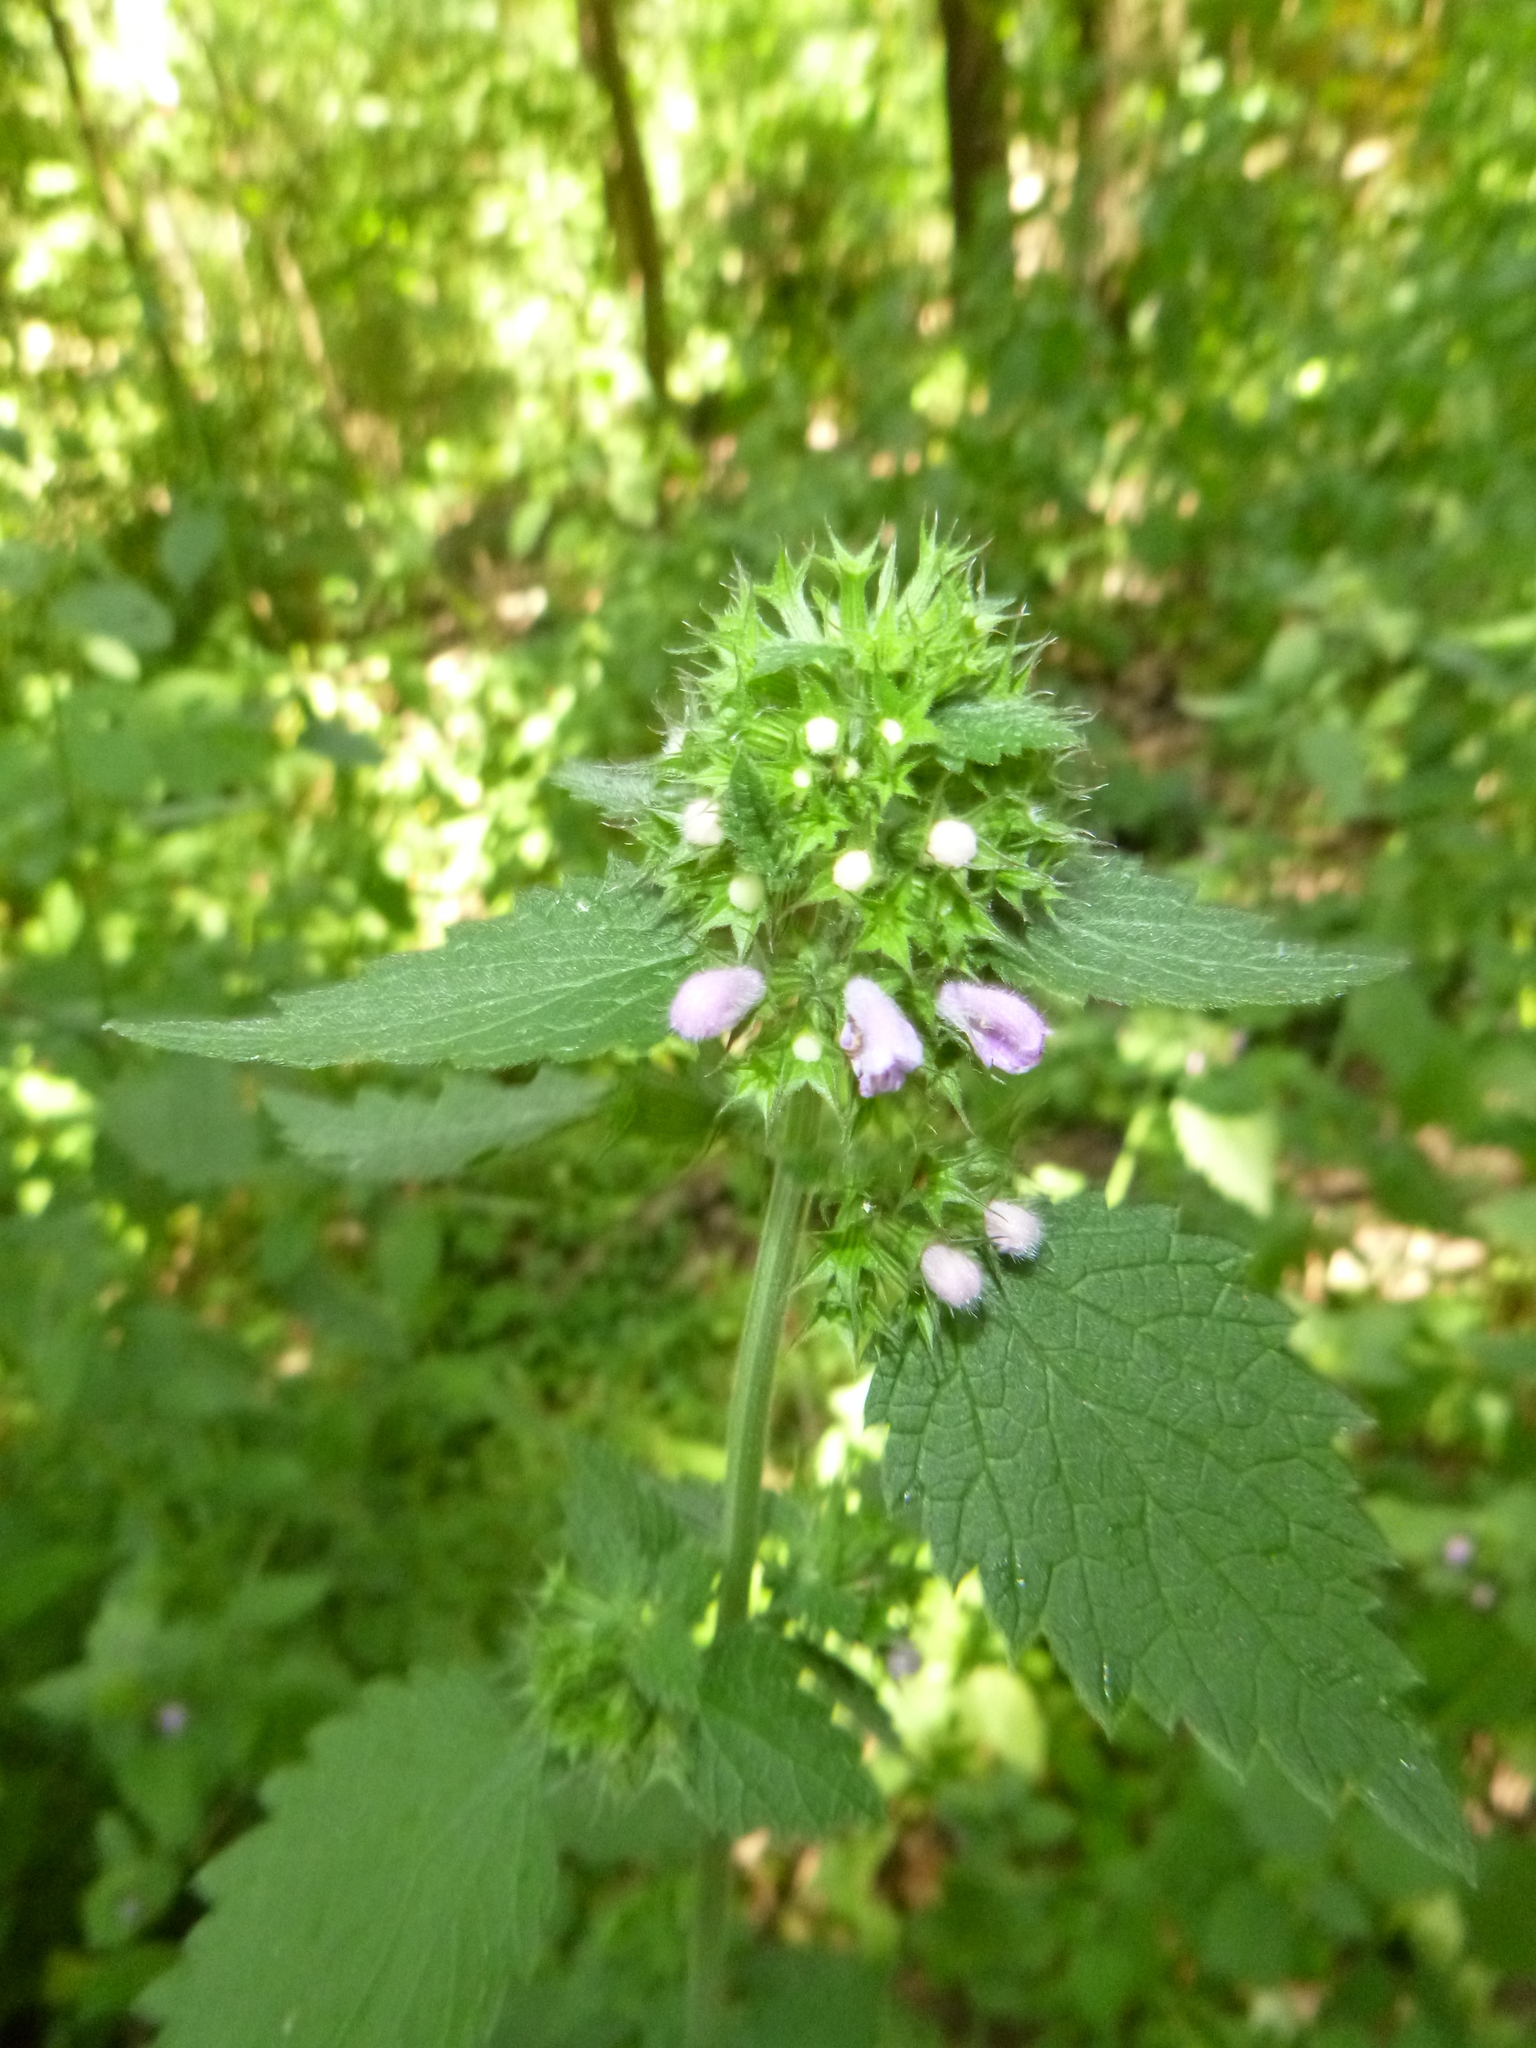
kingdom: Plantae
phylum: Tracheophyta
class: Magnoliopsida
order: Lamiales
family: Lamiaceae
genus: Ballota
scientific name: Ballota nigra
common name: Black horehound
